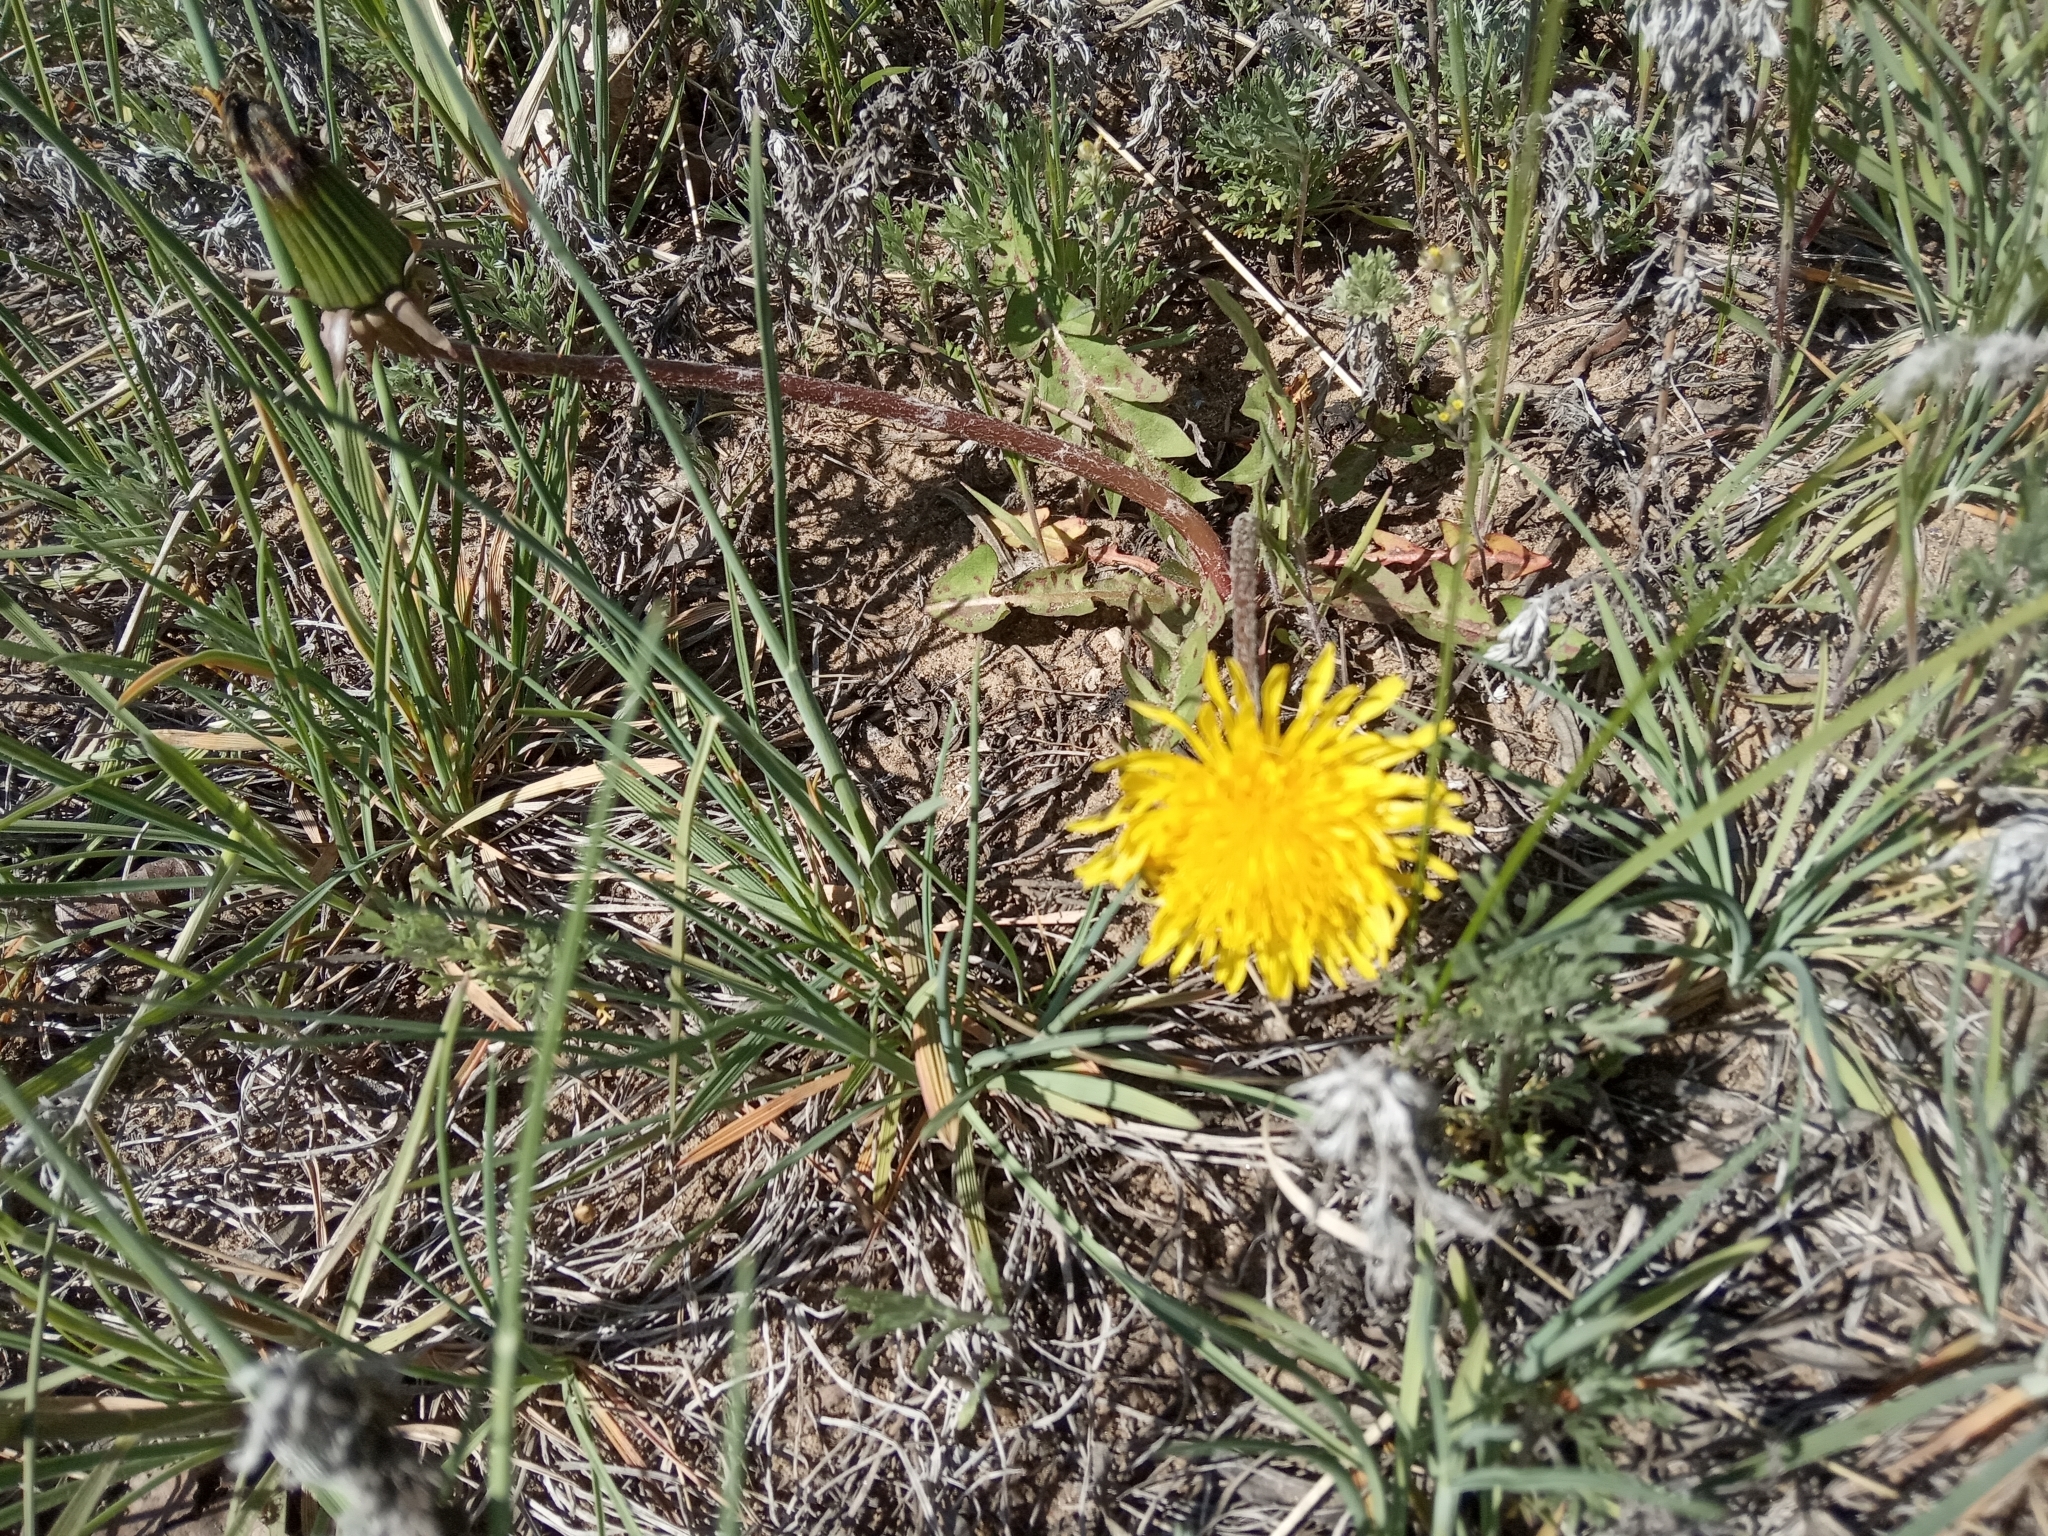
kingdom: Plantae
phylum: Tracheophyta
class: Magnoliopsida
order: Asterales
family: Asteraceae
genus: Taraxacum
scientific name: Taraxacum officinale
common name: Common dandelion
